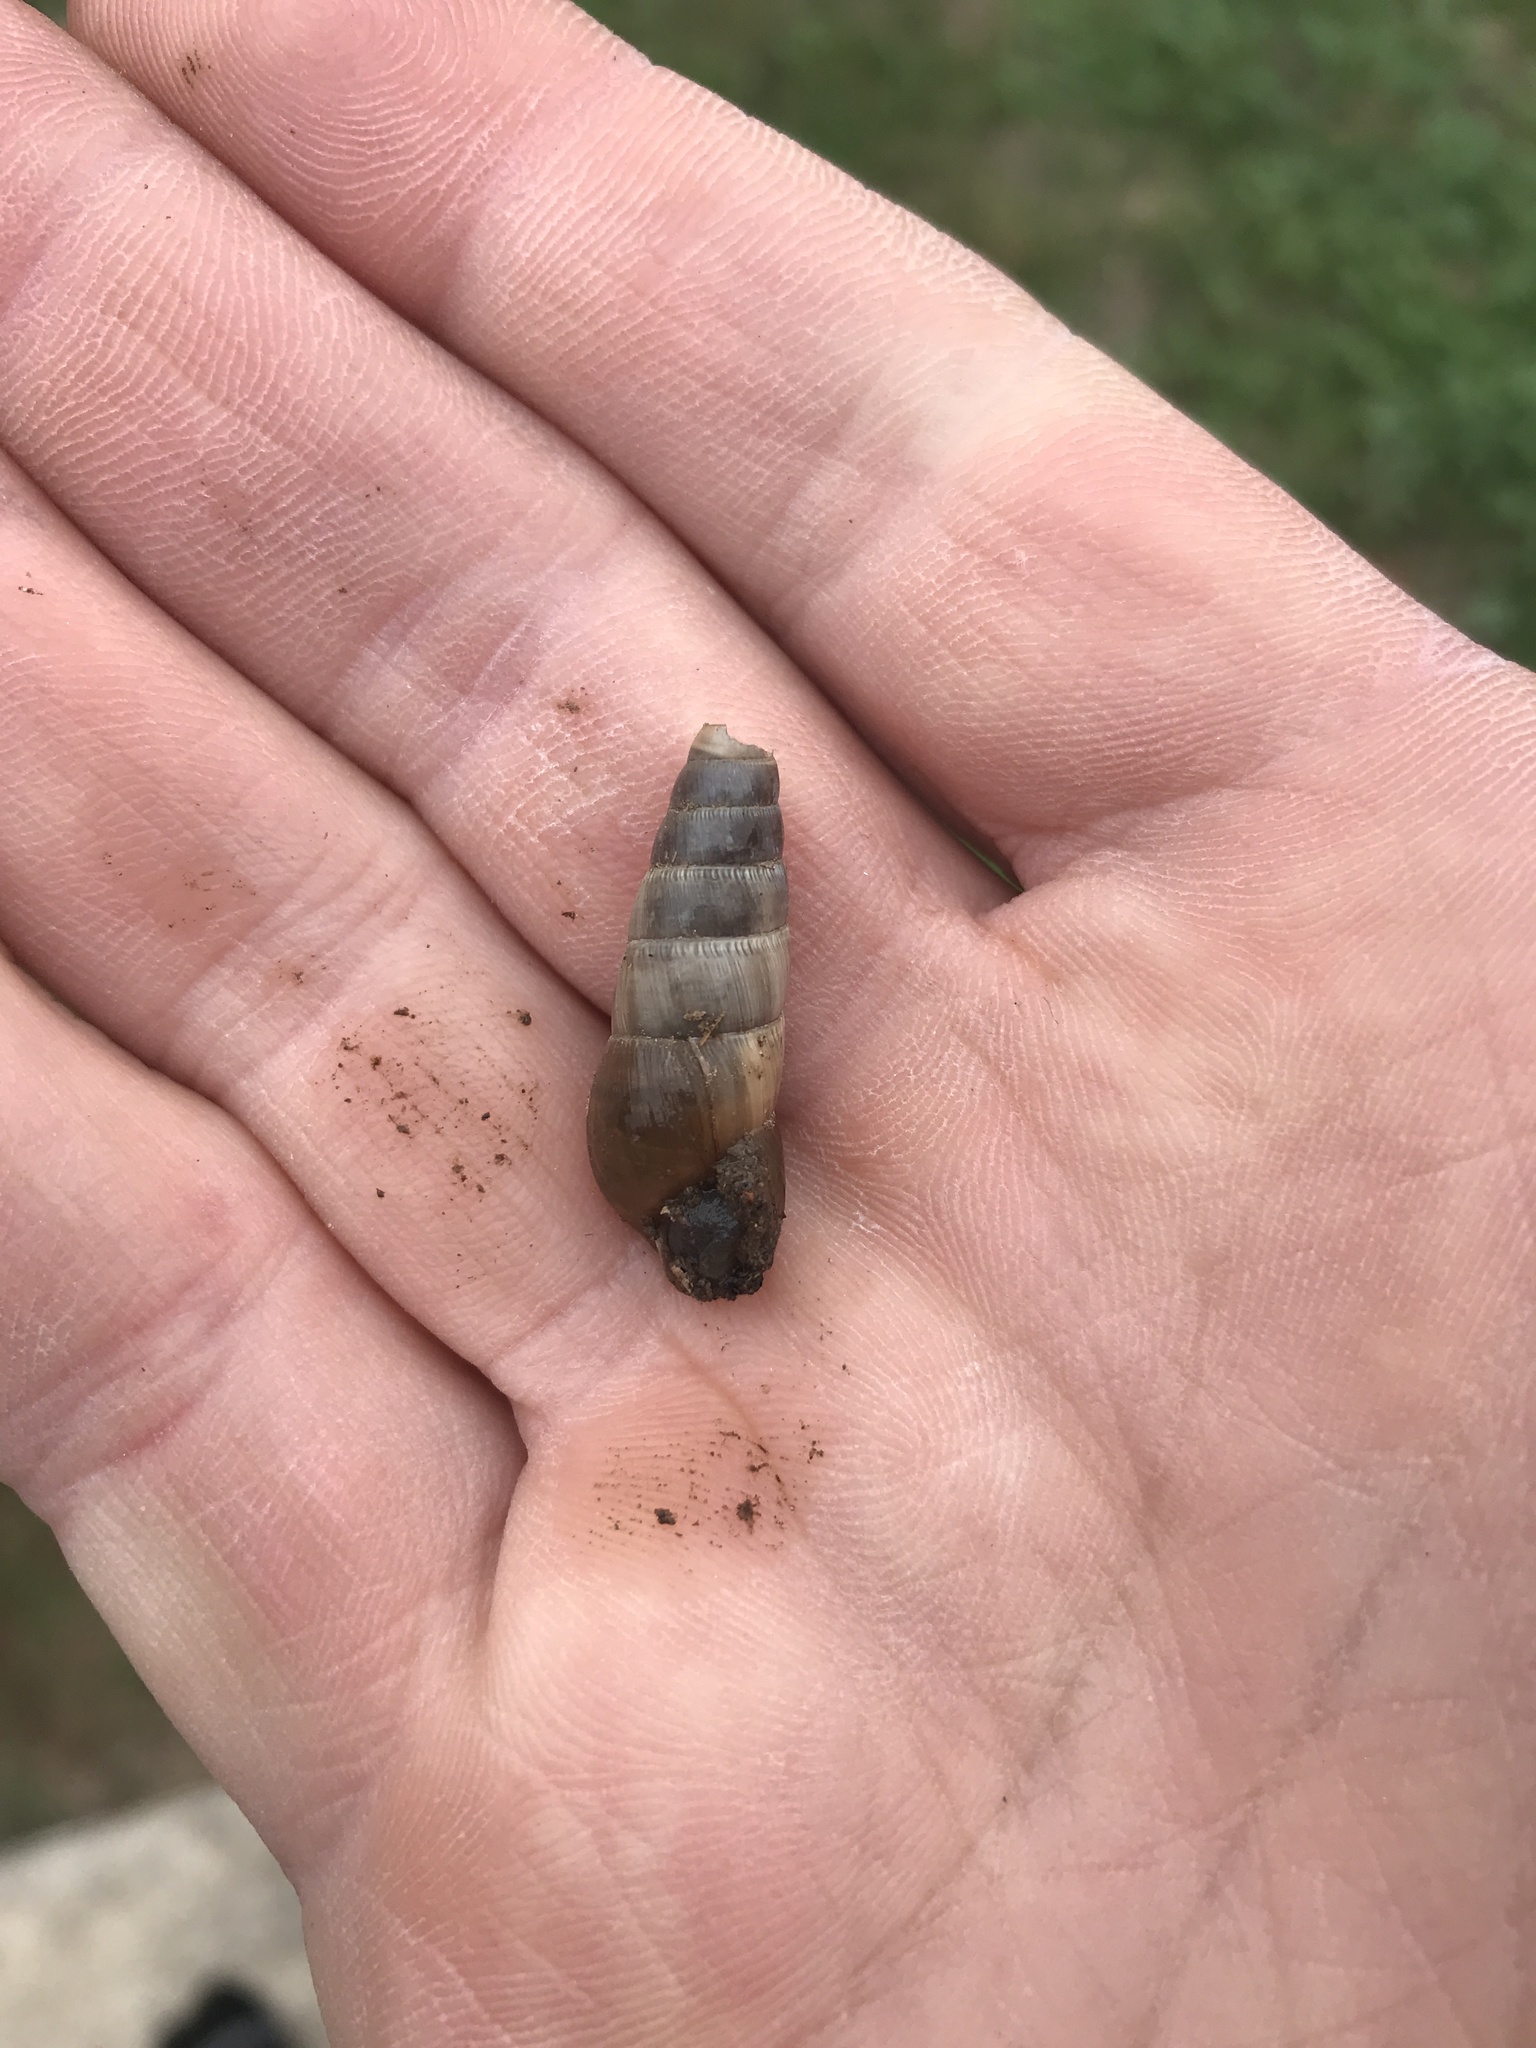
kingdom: Animalia
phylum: Mollusca
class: Gastropoda
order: Stylommatophora
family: Achatinidae
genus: Rumina
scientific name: Rumina decollata
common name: Decollate snail
